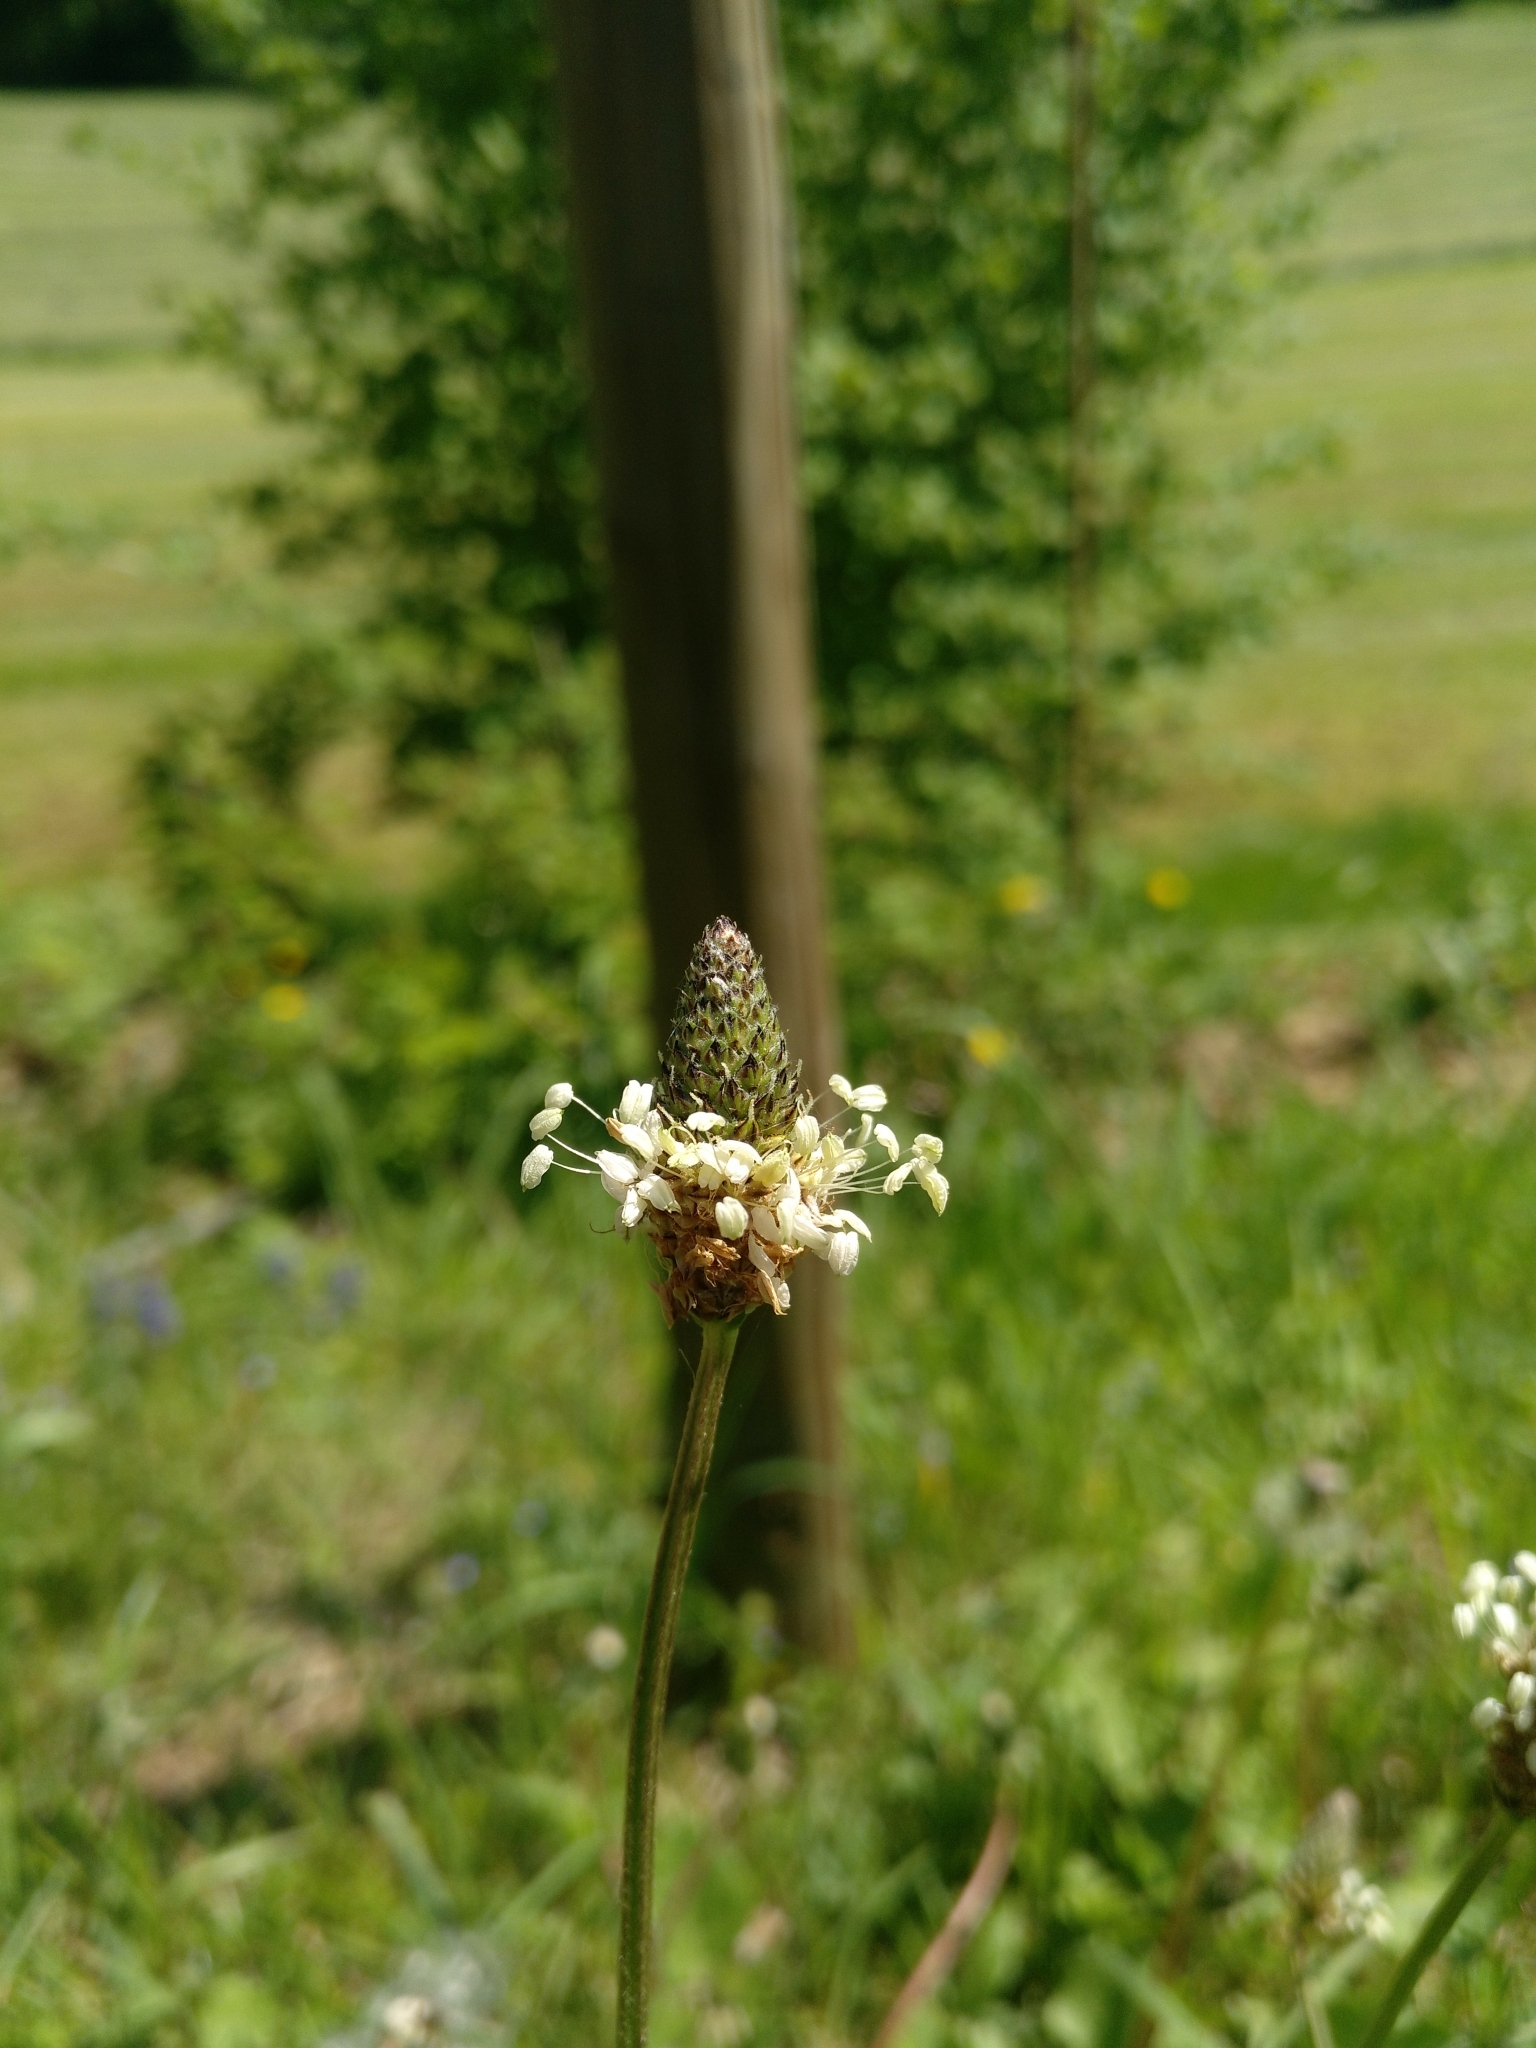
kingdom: Plantae
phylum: Tracheophyta
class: Magnoliopsida
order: Lamiales
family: Plantaginaceae
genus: Plantago
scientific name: Plantago lanceolata
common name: Ribwort plantain
